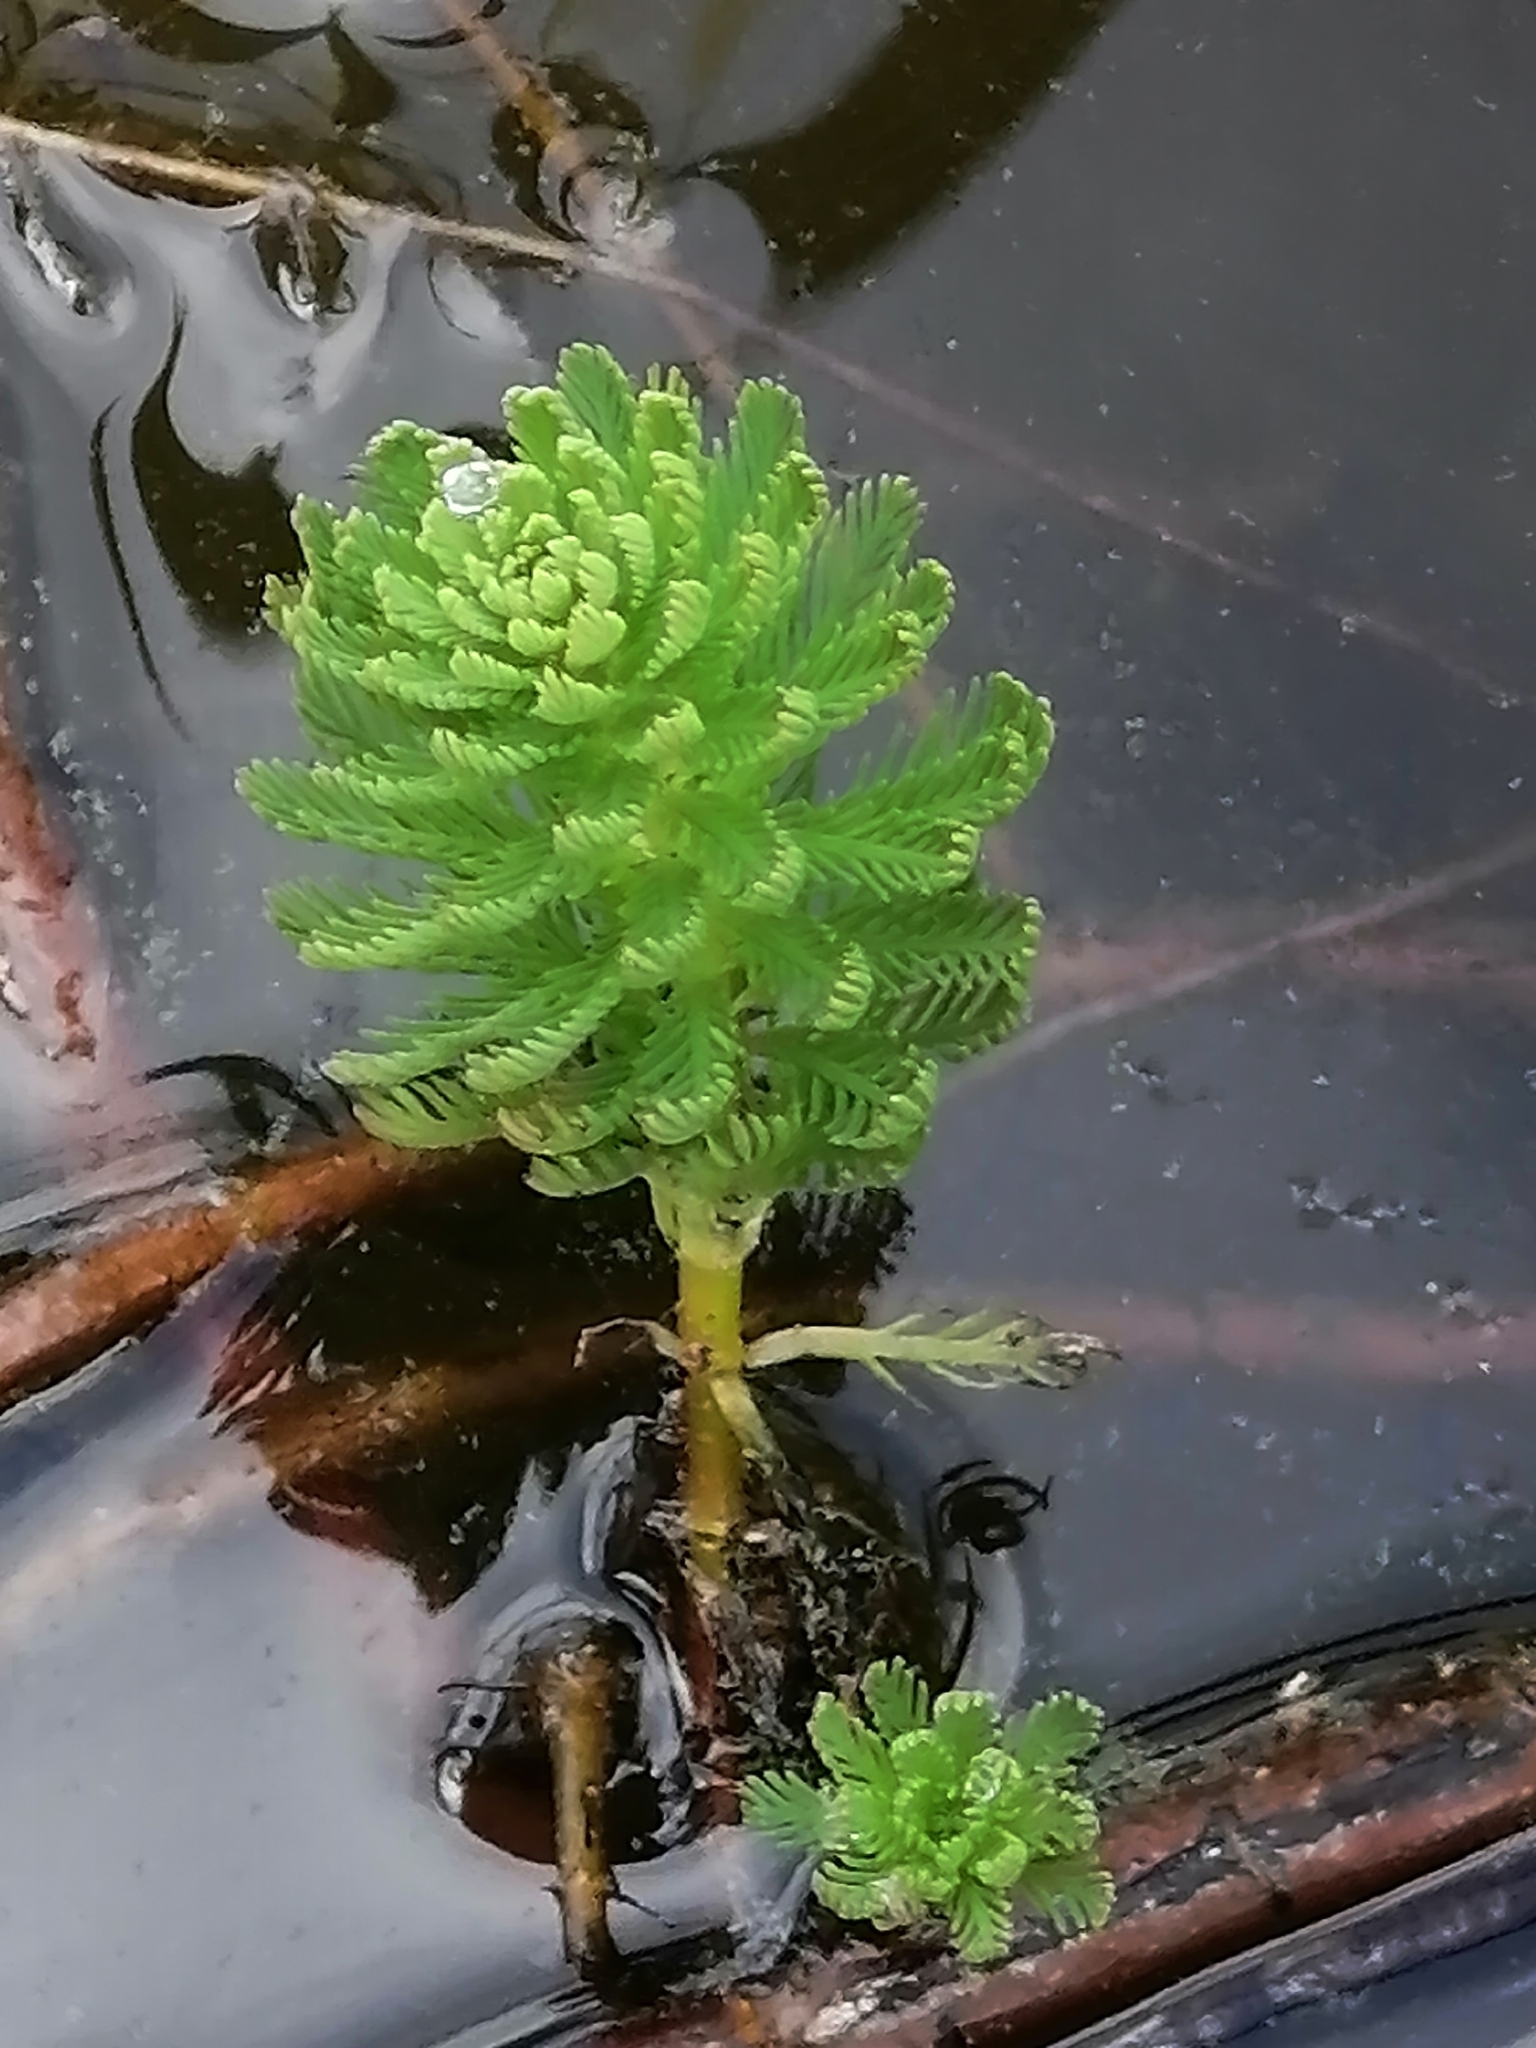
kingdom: Plantae
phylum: Tracheophyta
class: Magnoliopsida
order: Saxifragales
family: Haloragaceae
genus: Myriophyllum
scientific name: Myriophyllum aquaticum
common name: Parrot's feather
